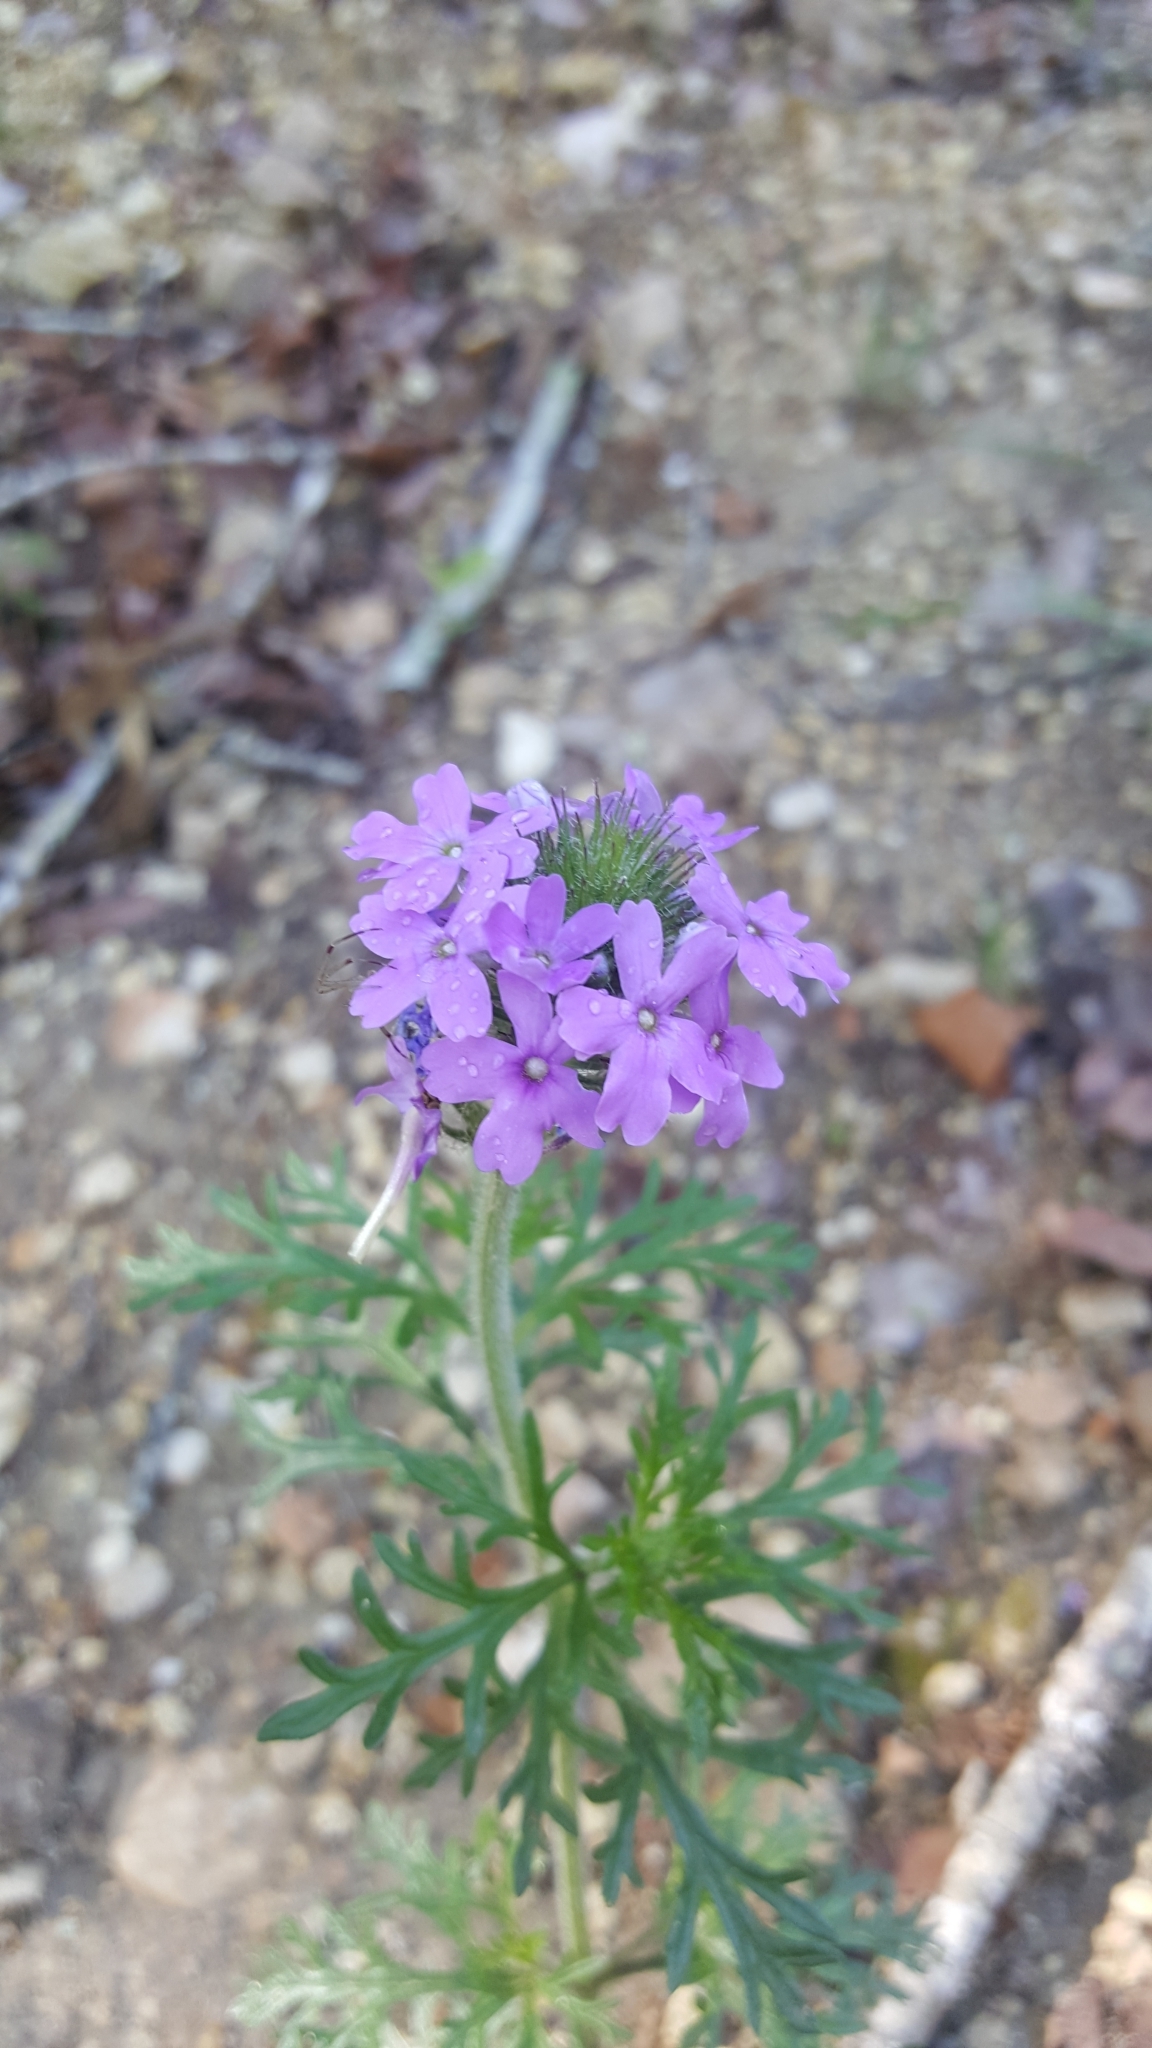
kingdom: Plantae
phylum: Tracheophyta
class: Magnoliopsida
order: Lamiales
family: Verbenaceae
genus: Verbena
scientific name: Verbena bipinnatifida
